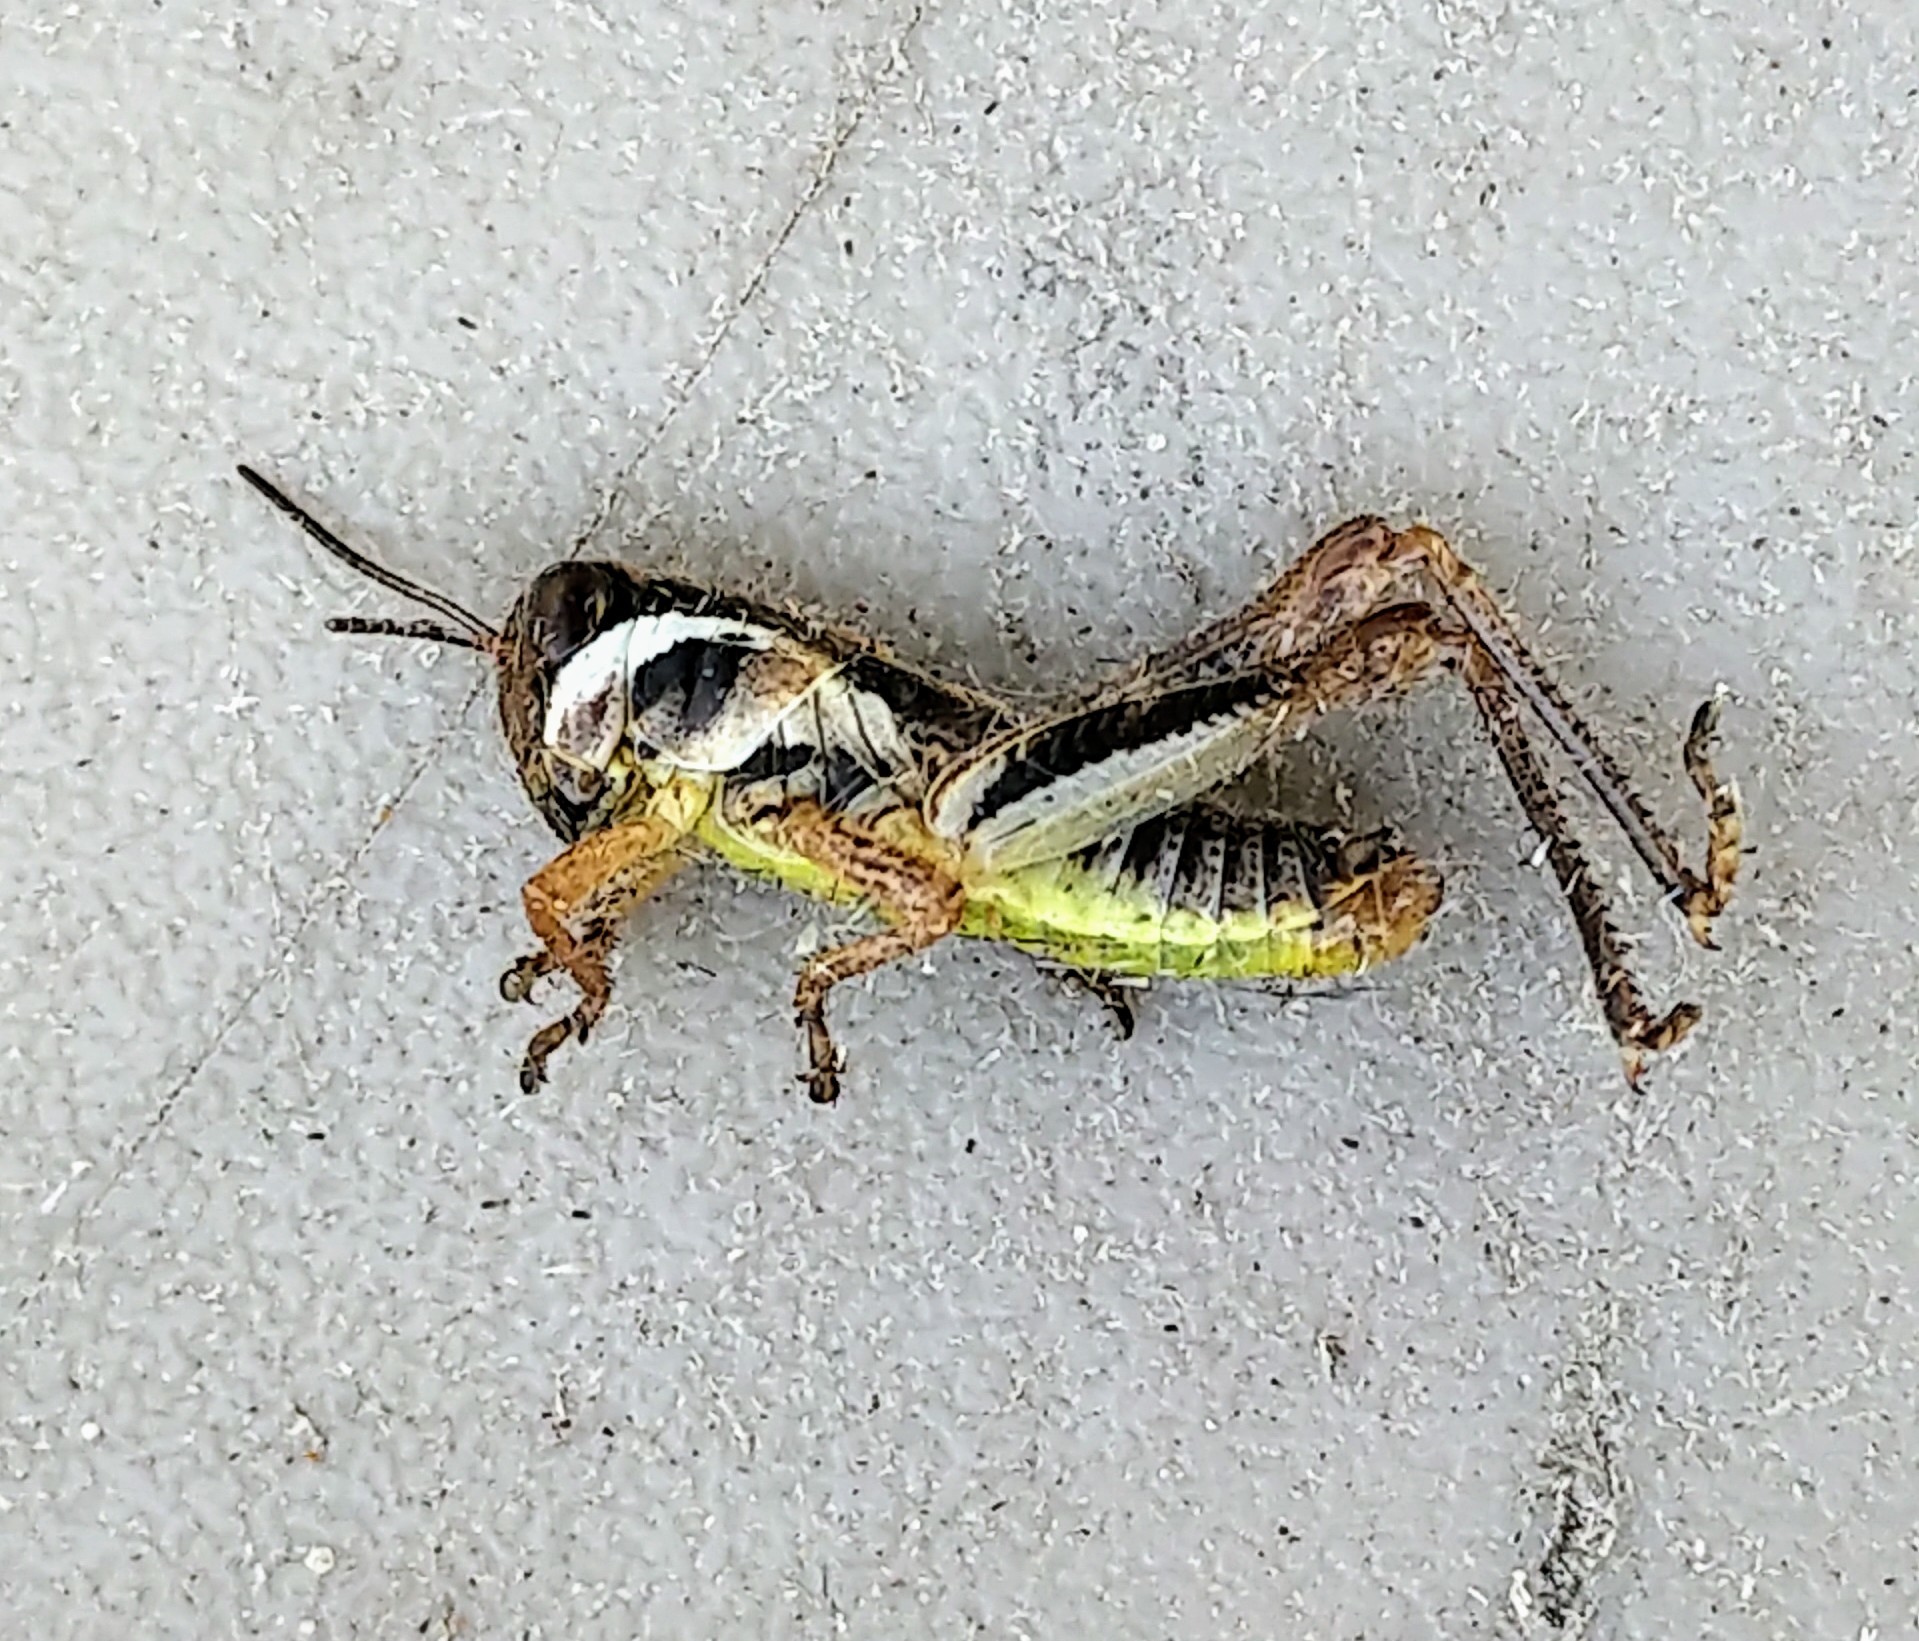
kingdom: Animalia
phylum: Arthropoda
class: Insecta
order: Orthoptera
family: Acrididae
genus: Melanoplus
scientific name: Melanoplus dawsoni
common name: Dawson grasshopper
